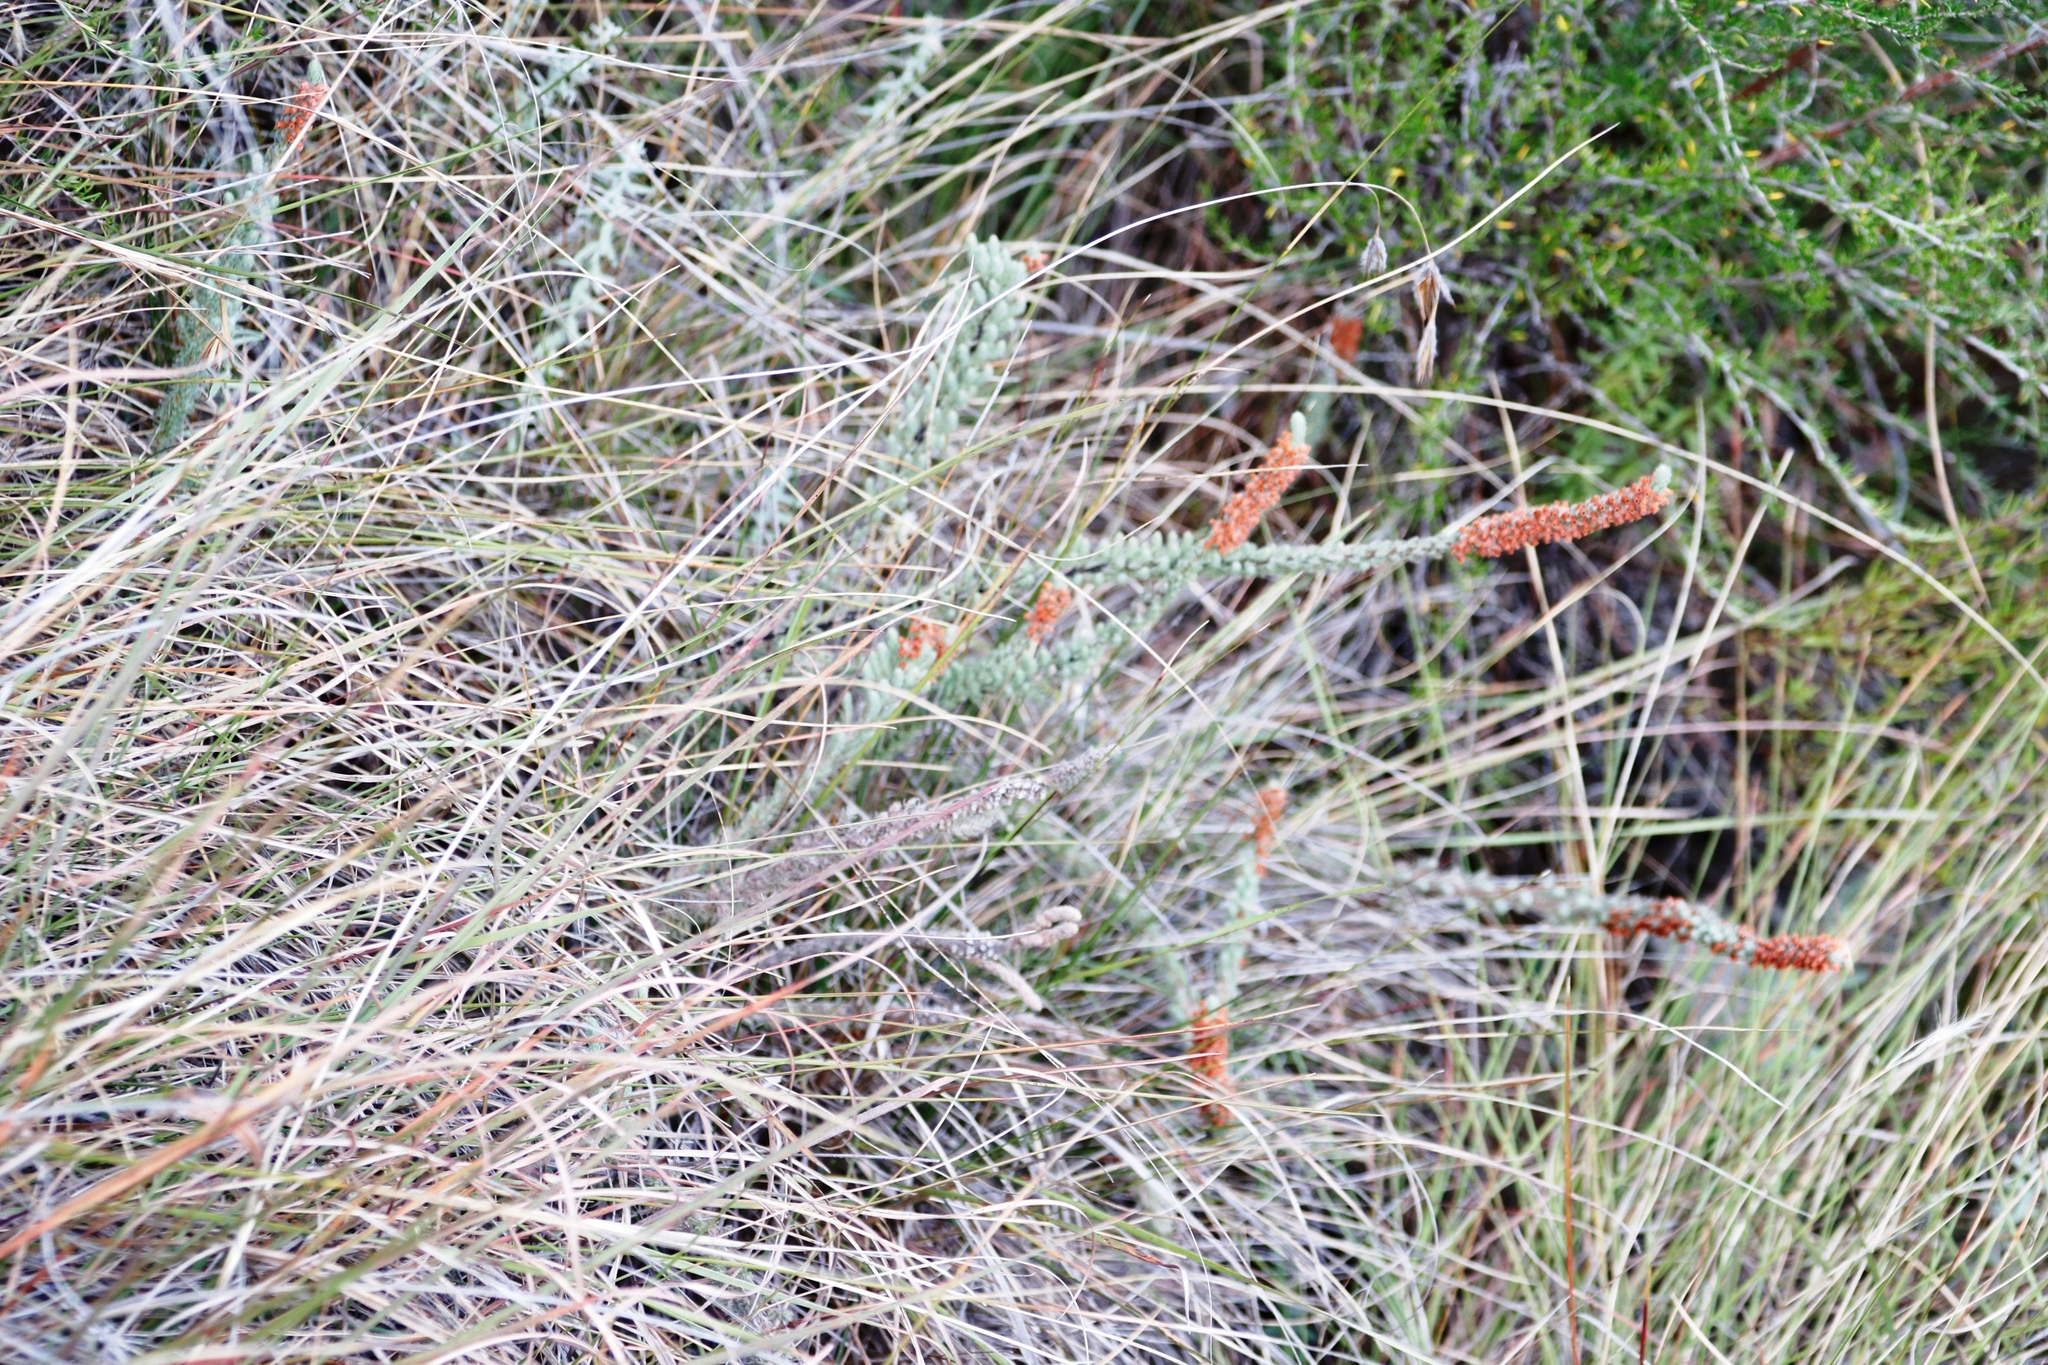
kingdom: Plantae
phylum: Tracheophyta
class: Magnoliopsida
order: Ericales
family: Ericaceae
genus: Erica
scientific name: Erica alopecurus
